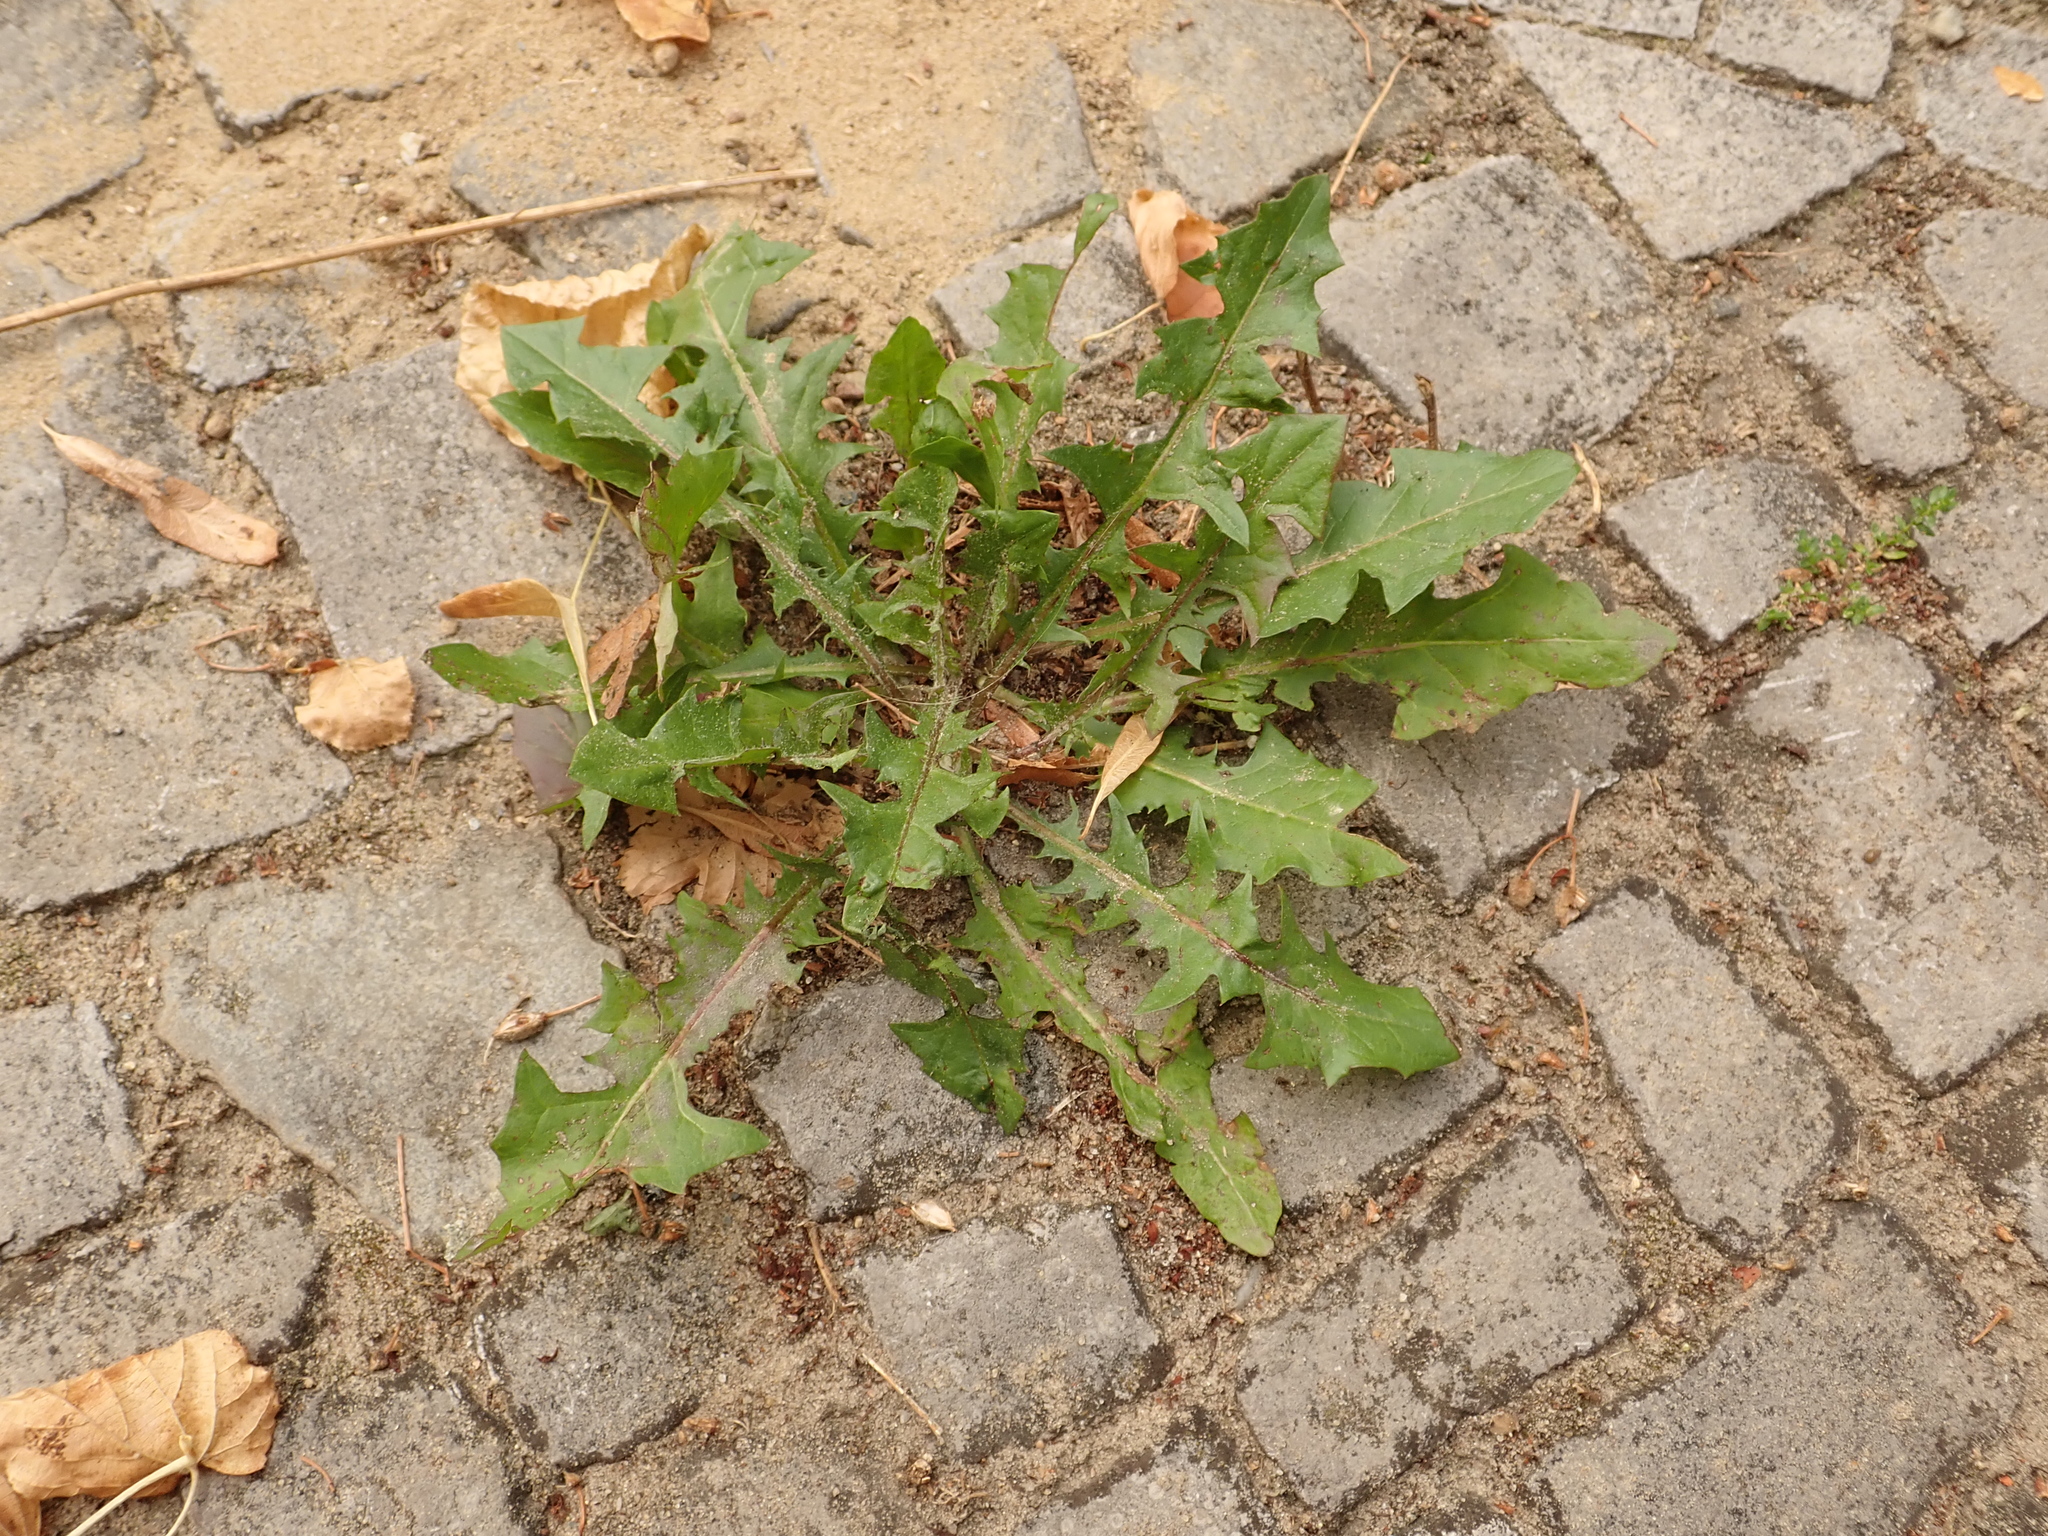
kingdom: Plantae
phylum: Tracheophyta
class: Magnoliopsida
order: Asterales
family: Asteraceae
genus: Taraxacum
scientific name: Taraxacum officinale
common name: Common dandelion
